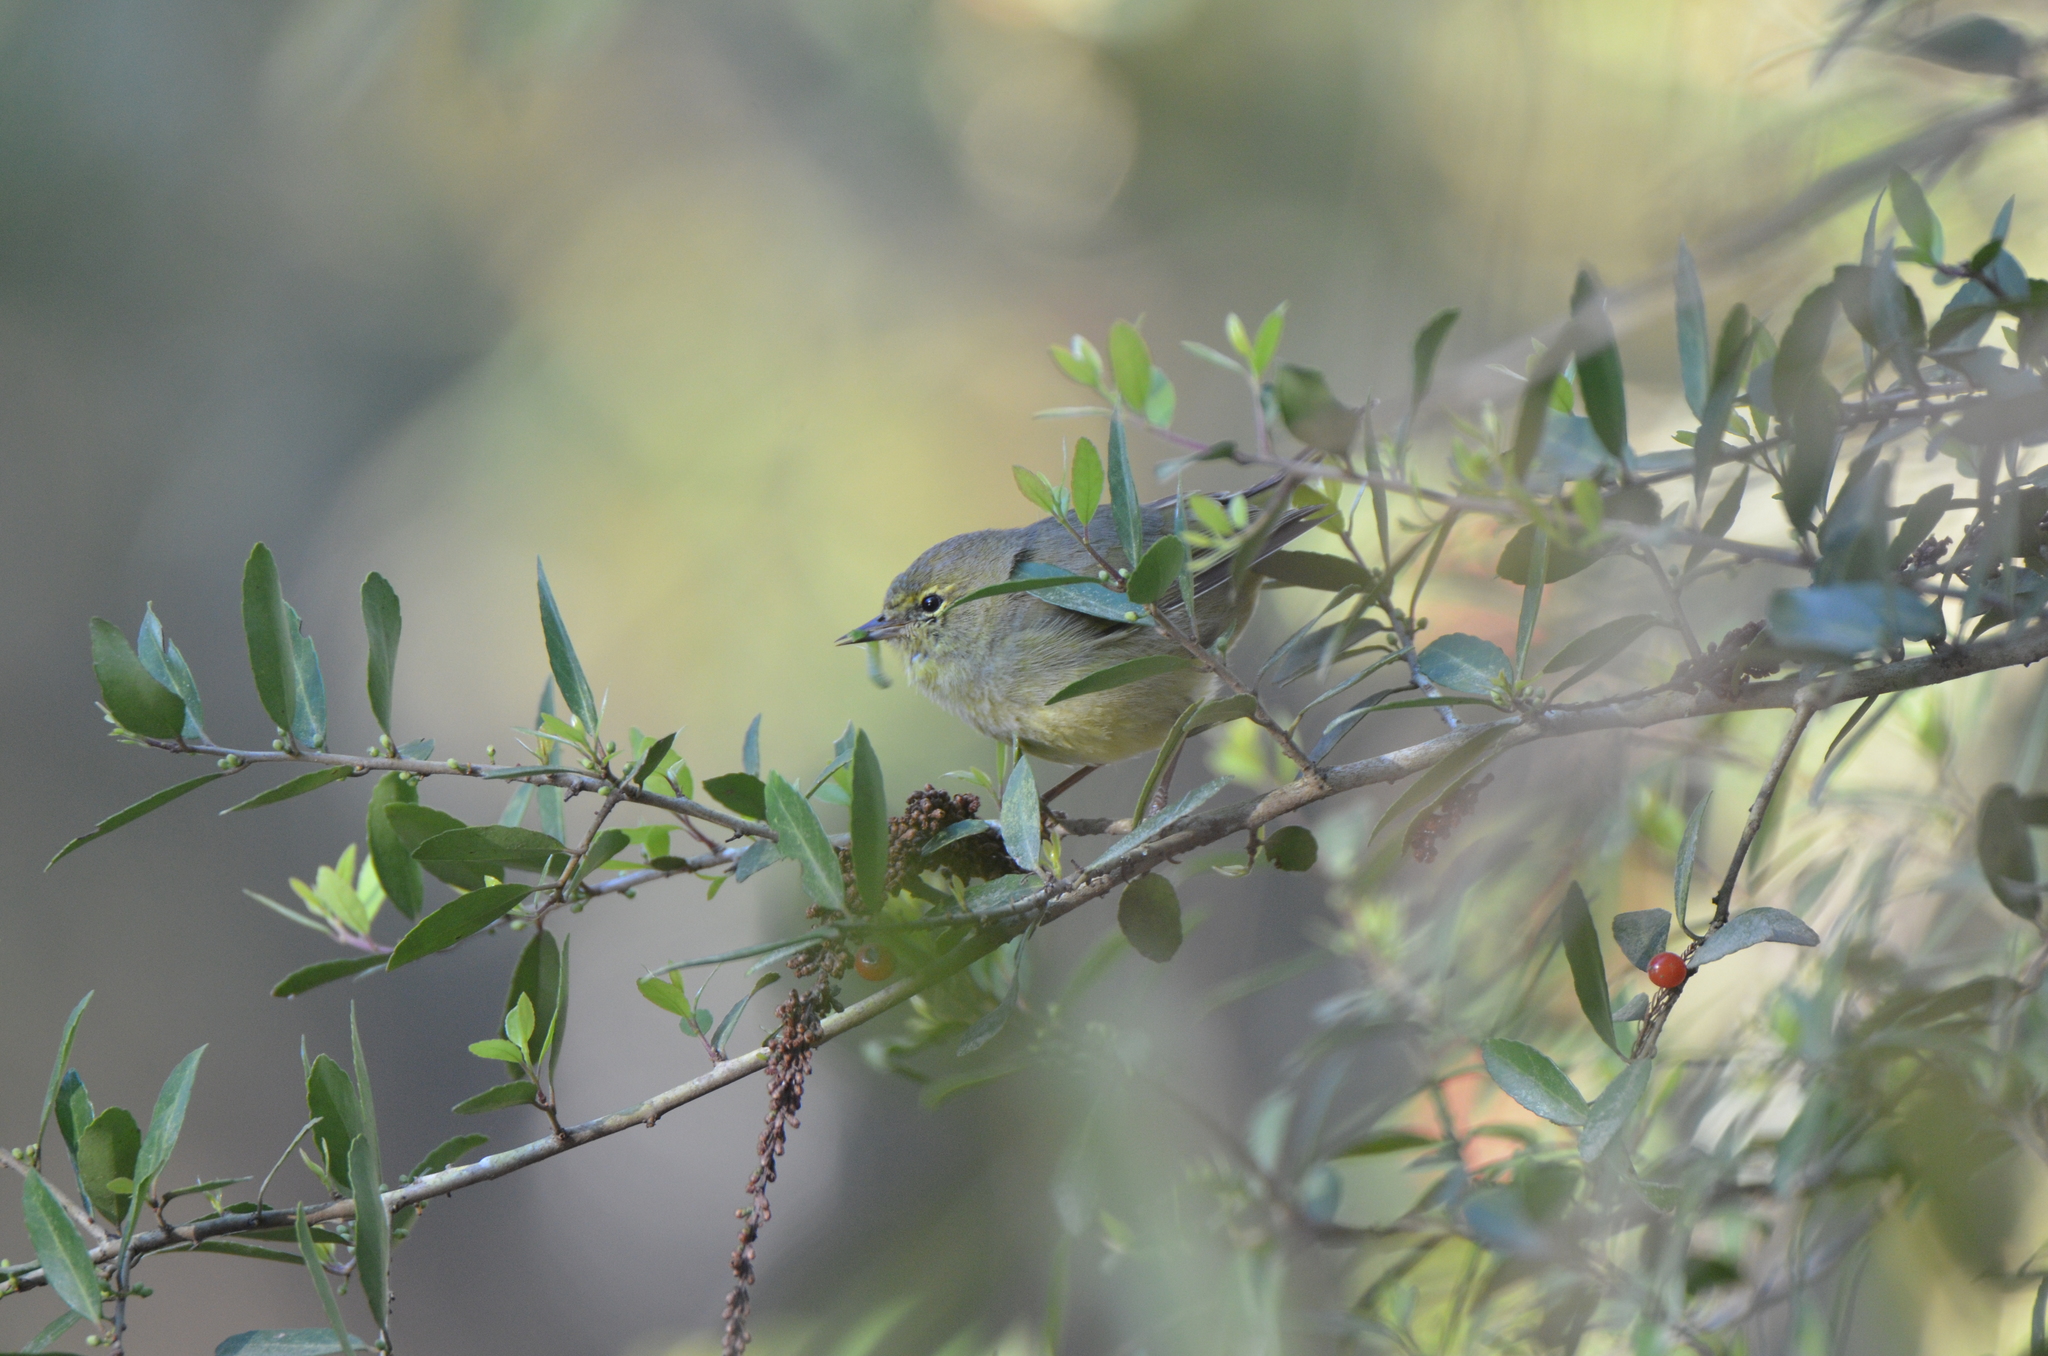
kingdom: Animalia
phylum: Chordata
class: Aves
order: Passeriformes
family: Parulidae
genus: Leiothlypis
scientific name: Leiothlypis celata
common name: Orange-crowned warbler
